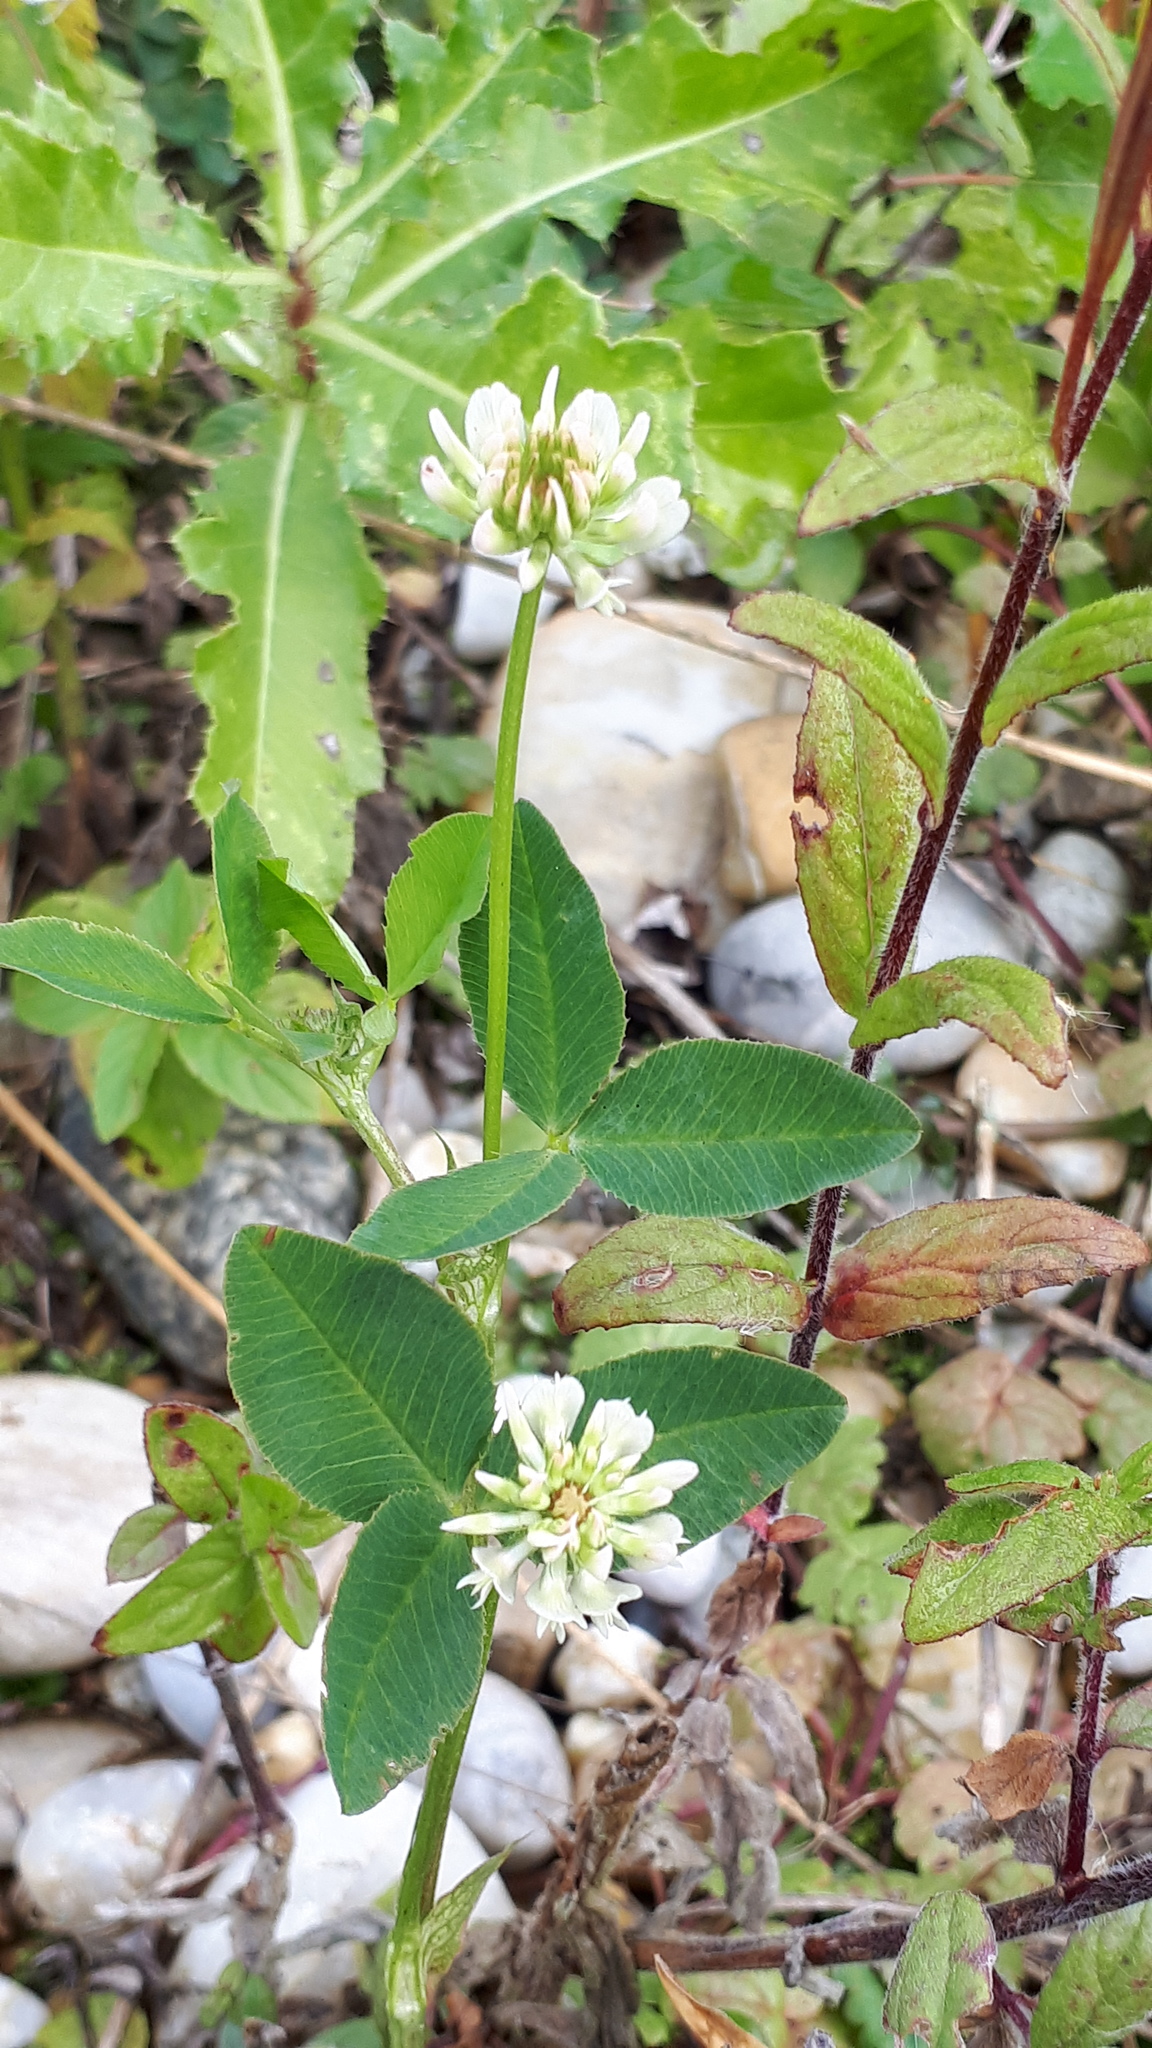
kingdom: Plantae
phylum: Tracheophyta
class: Magnoliopsida
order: Fabales
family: Fabaceae
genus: Trifolium
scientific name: Trifolium hybridum
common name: Alsike clover
